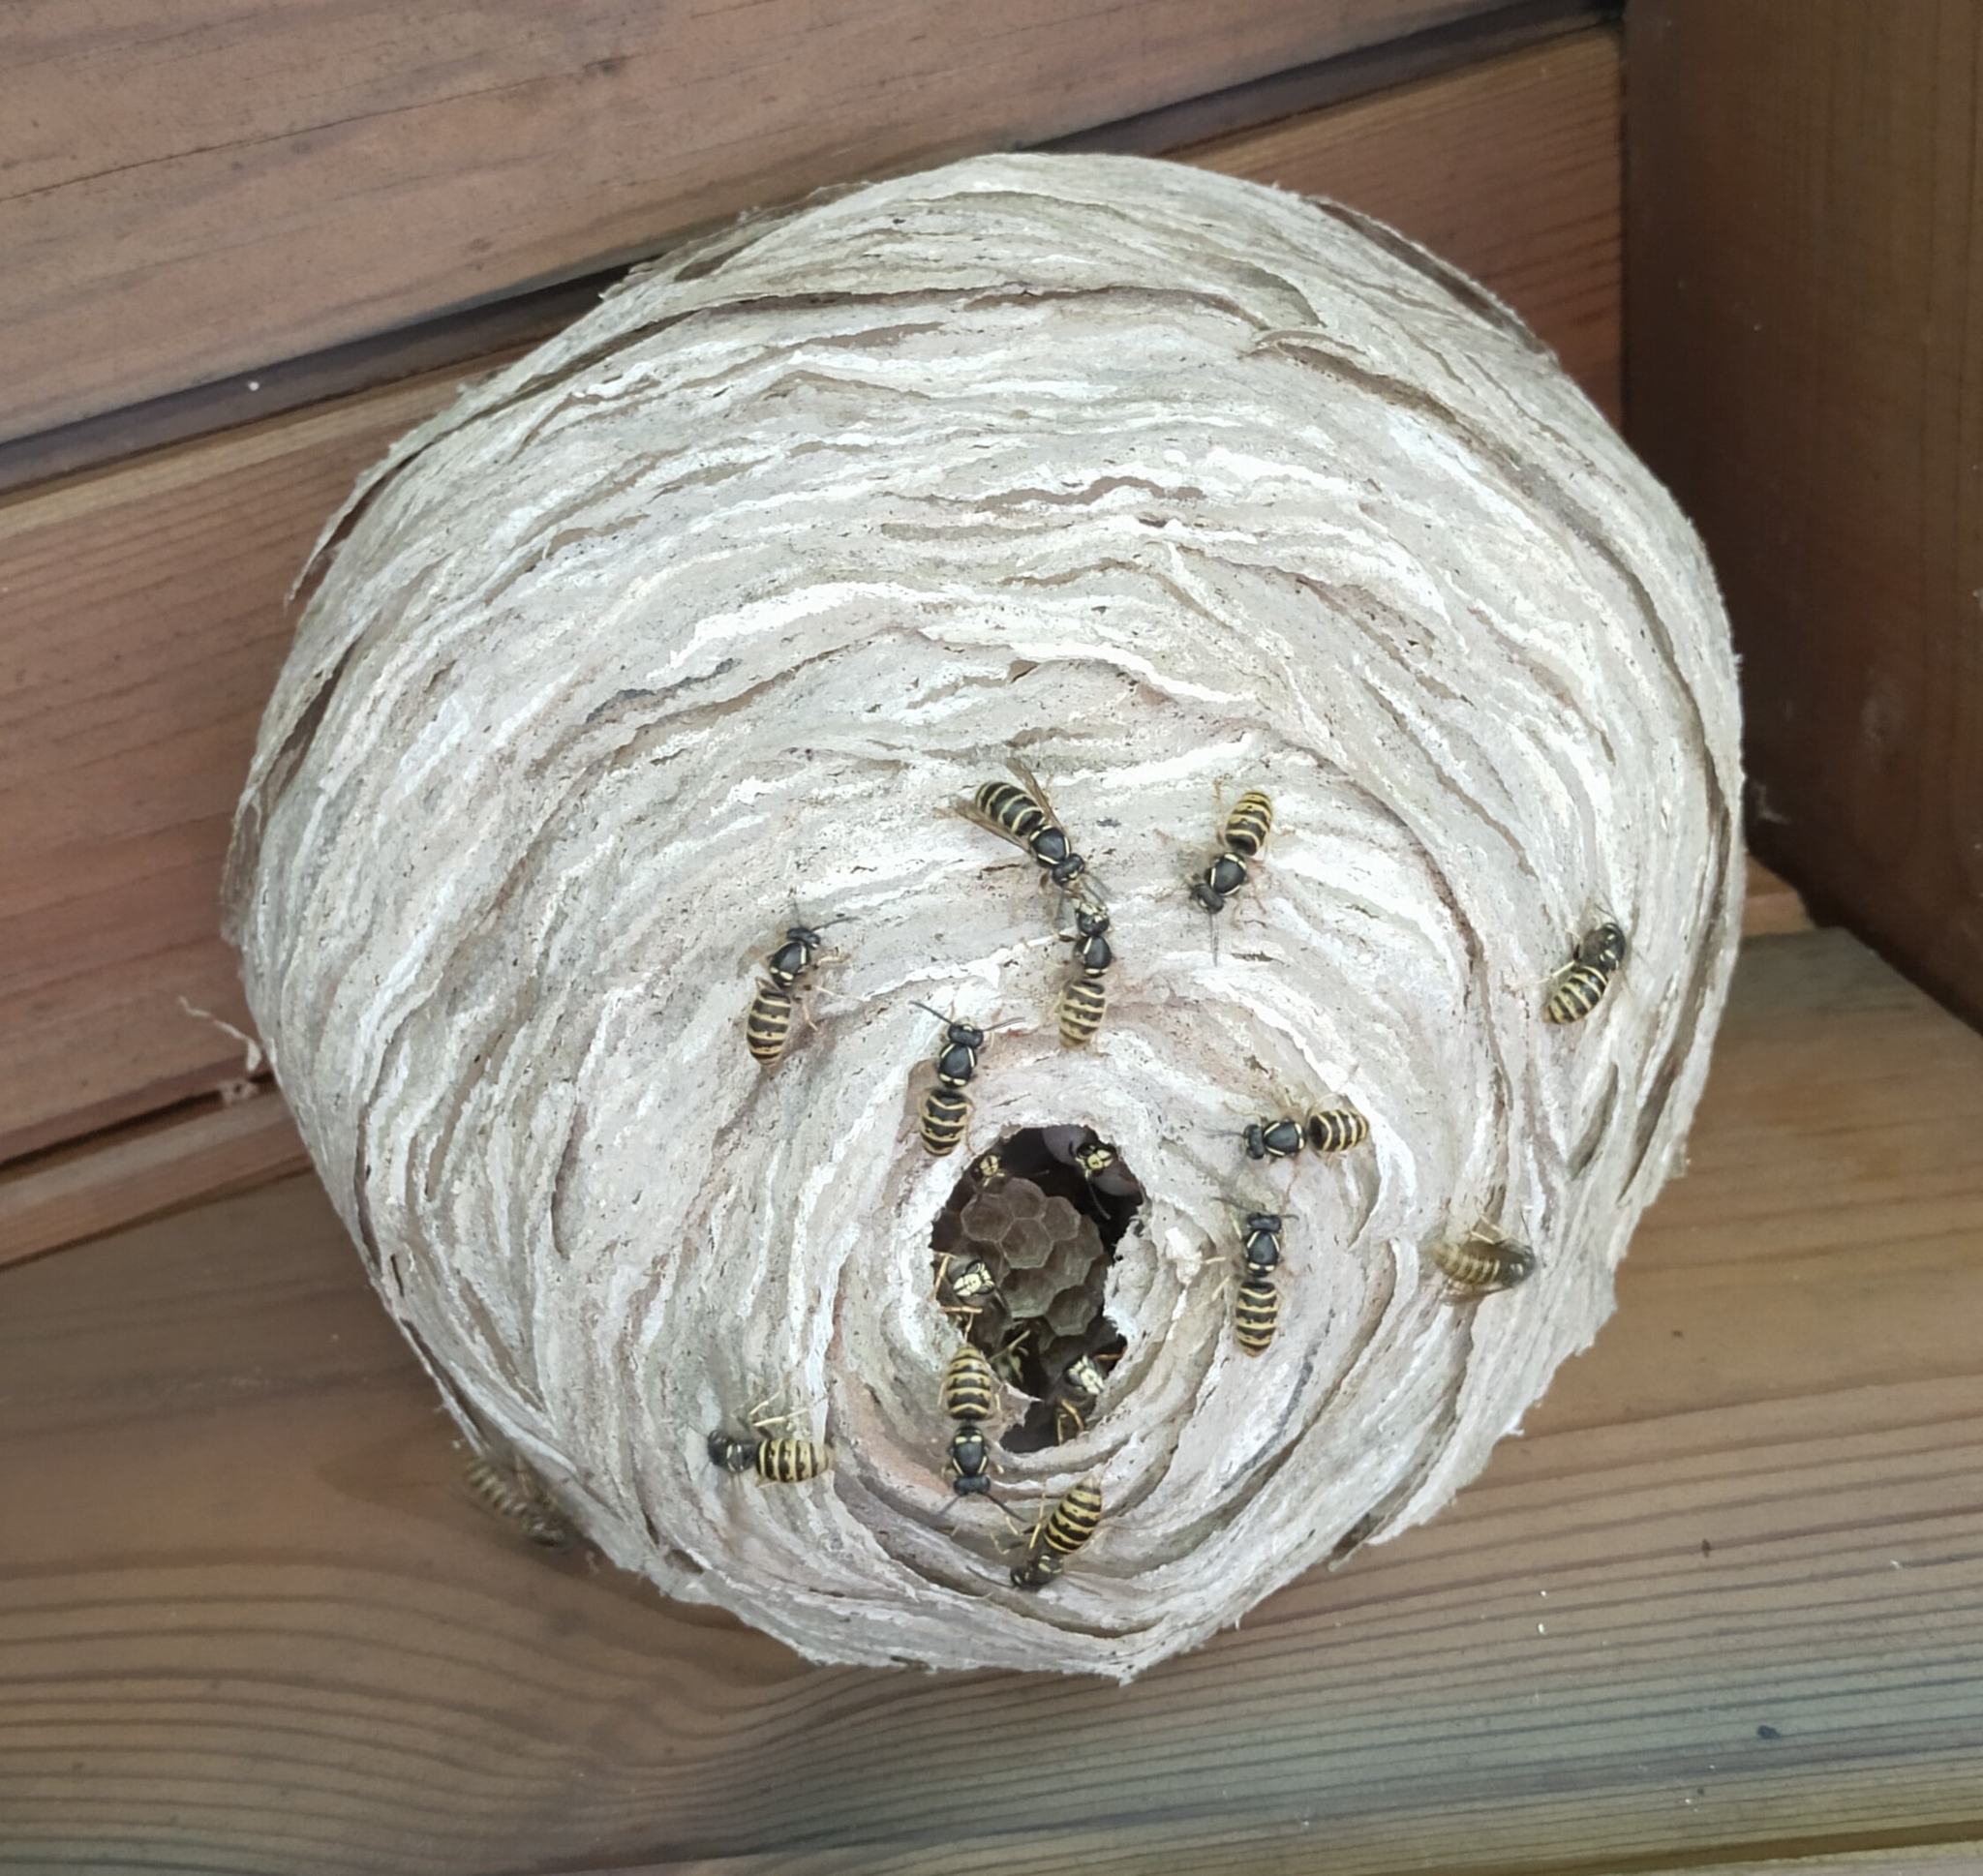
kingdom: Animalia
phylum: Arthropoda
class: Insecta
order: Hymenoptera
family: Vespidae
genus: Dolichovespula
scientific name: Dolichovespula saxonica
